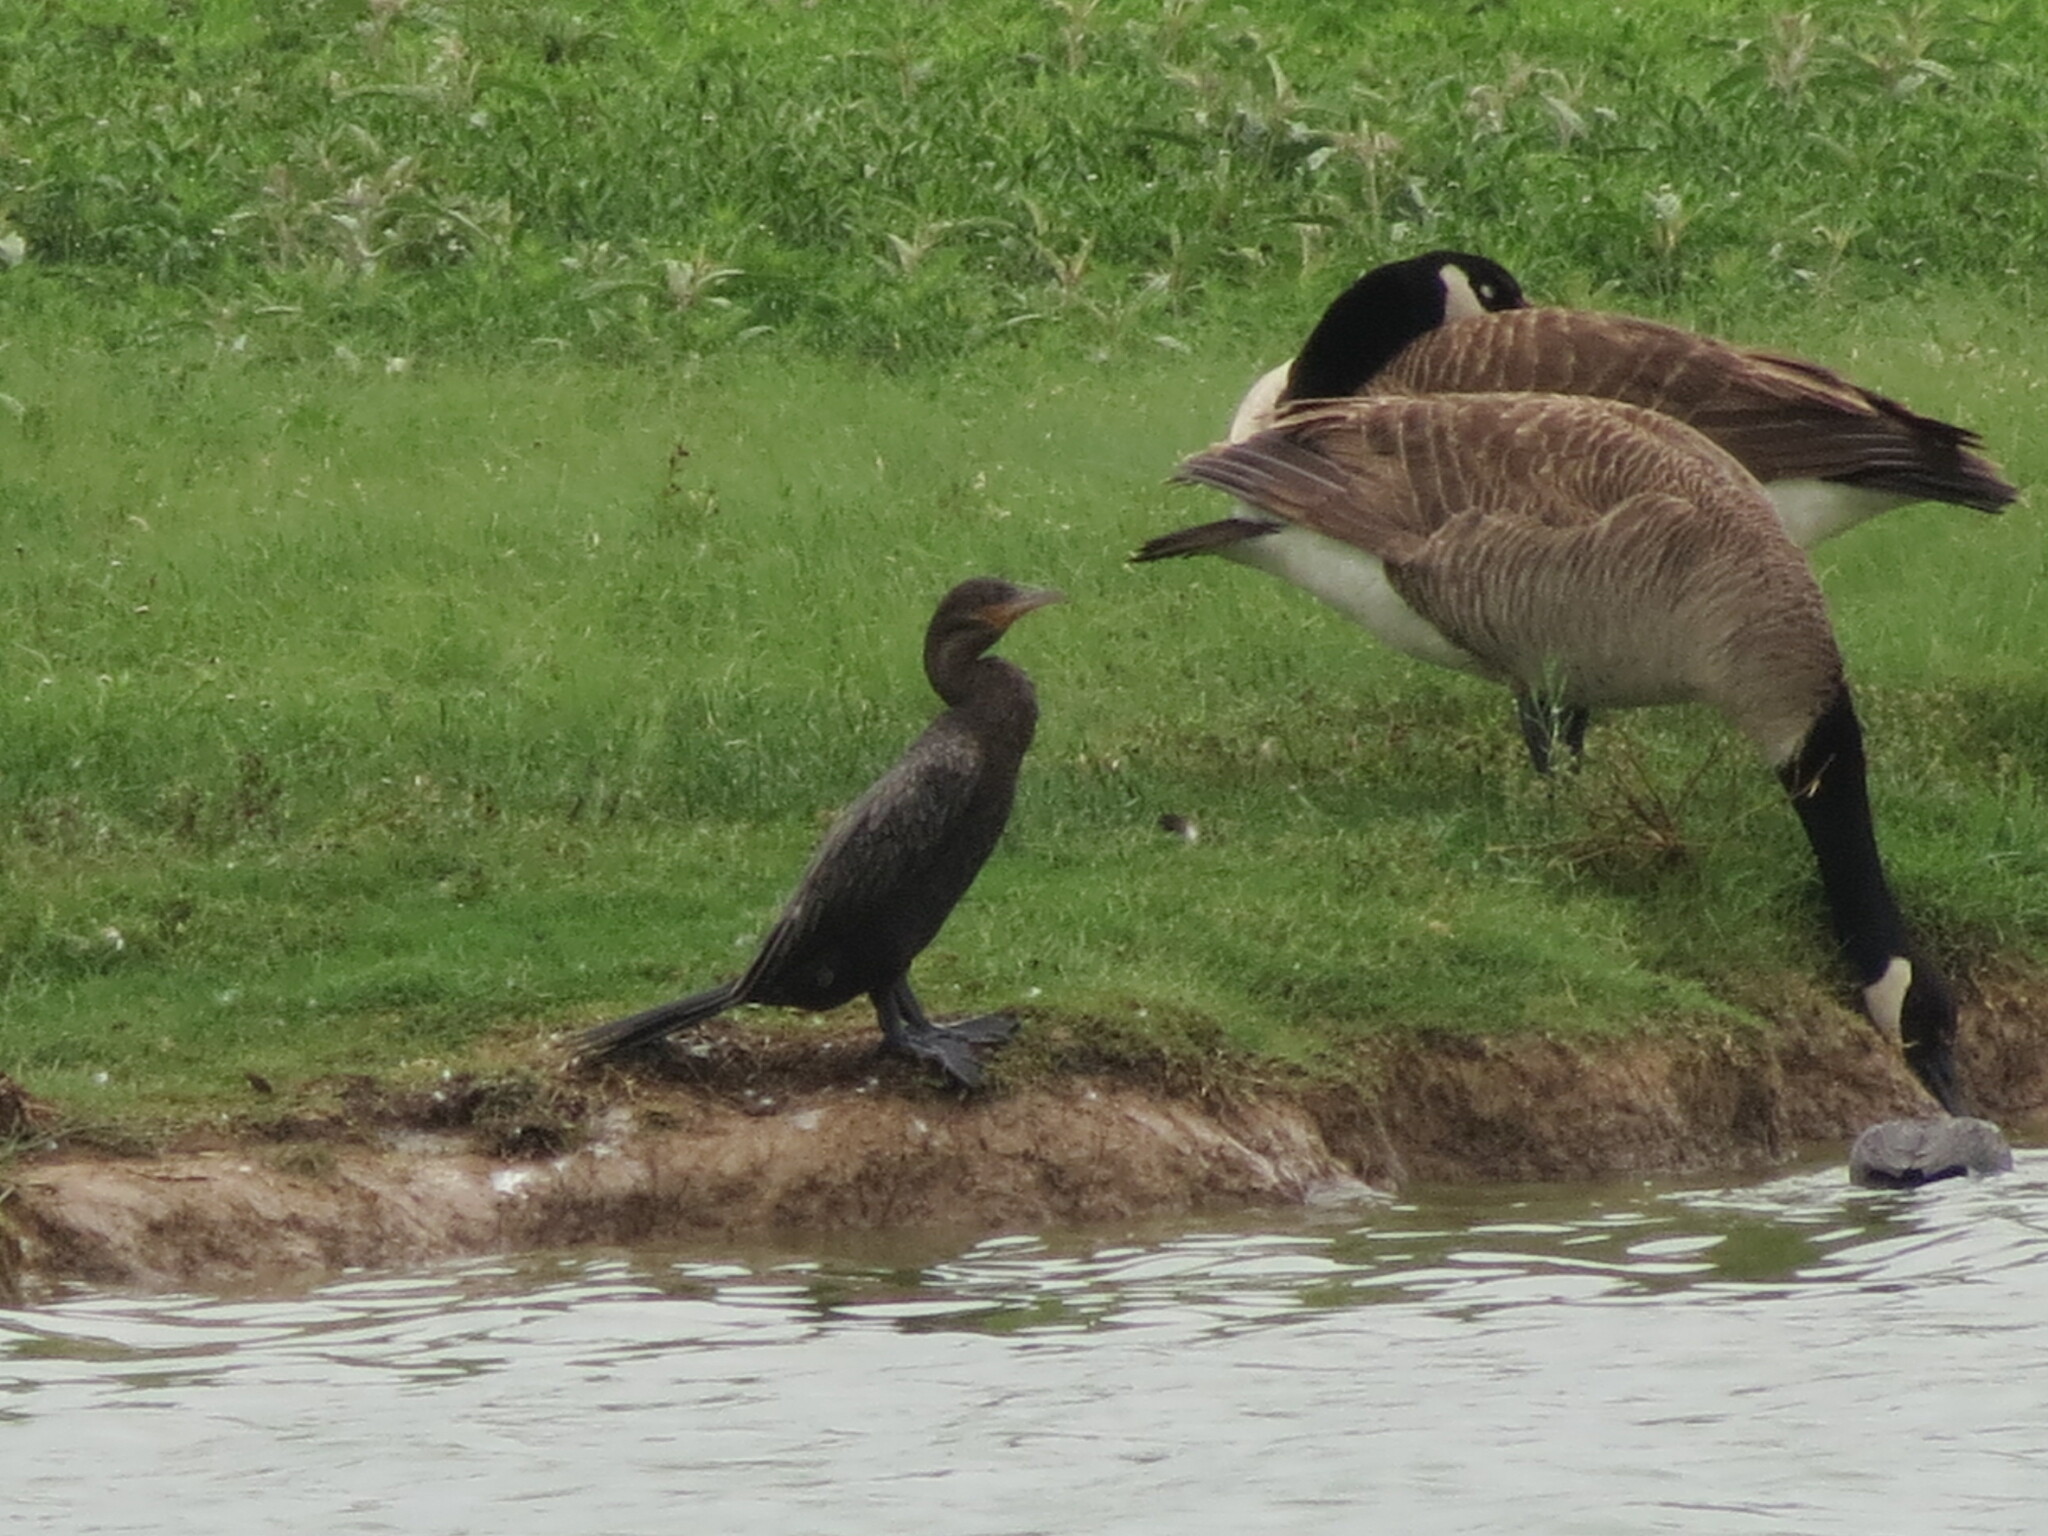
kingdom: Animalia
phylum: Chordata
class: Aves
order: Suliformes
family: Phalacrocoracidae
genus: Phalacrocorax
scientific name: Phalacrocorax brasilianus
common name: Neotropic cormorant
